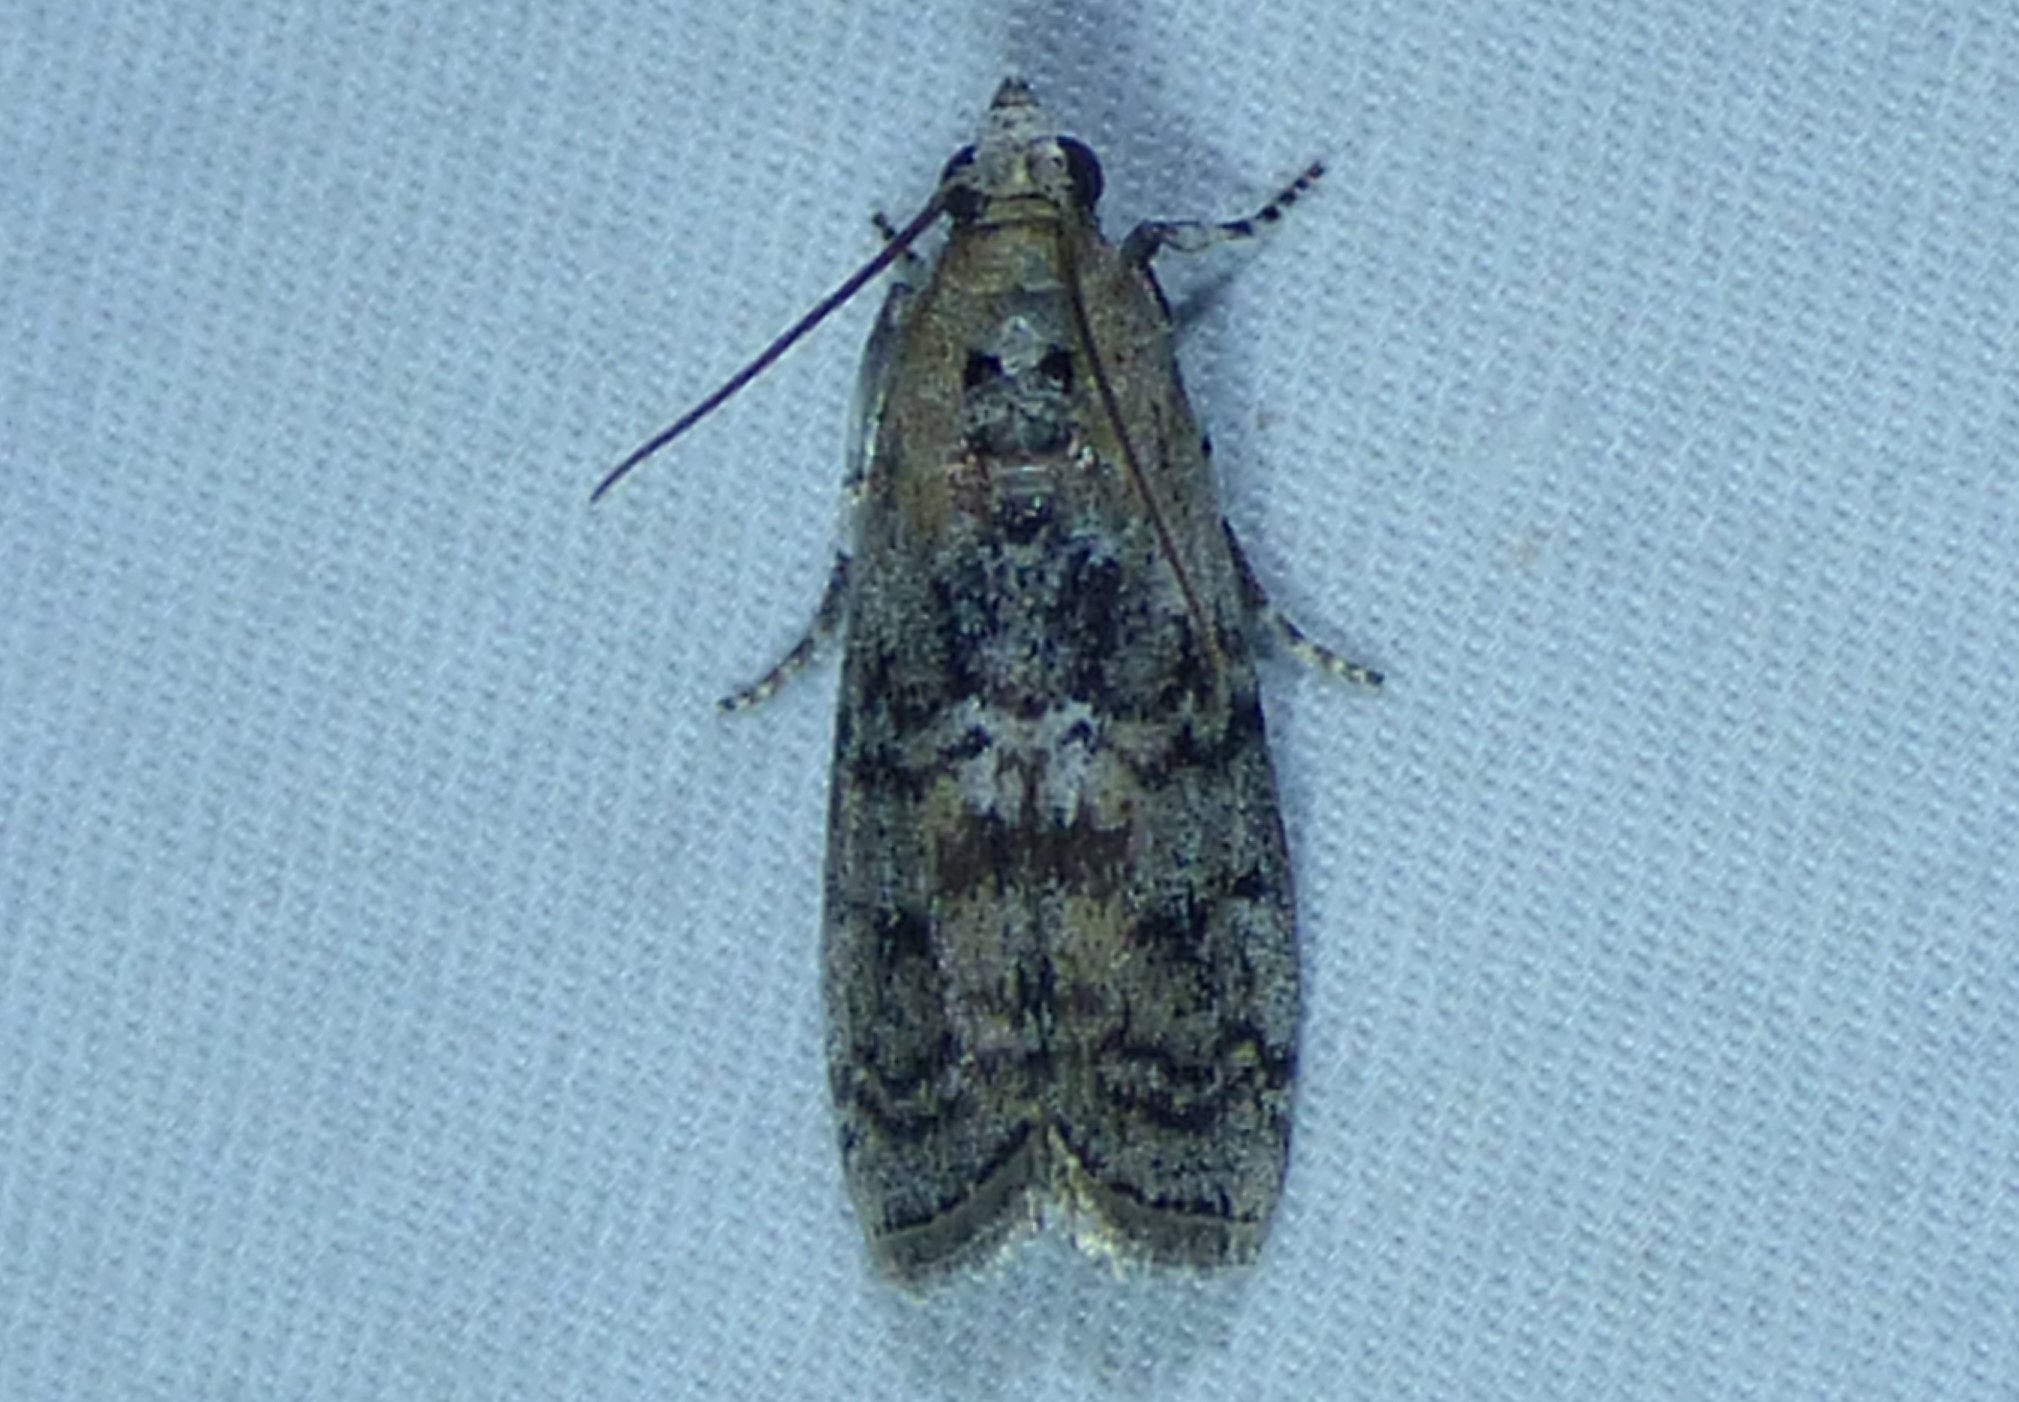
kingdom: Animalia
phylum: Arthropoda
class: Insecta
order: Lepidoptera
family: Pyralidae
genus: Glyptocera
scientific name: Glyptocera consobrinella
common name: Viburnum glyptocera moth
